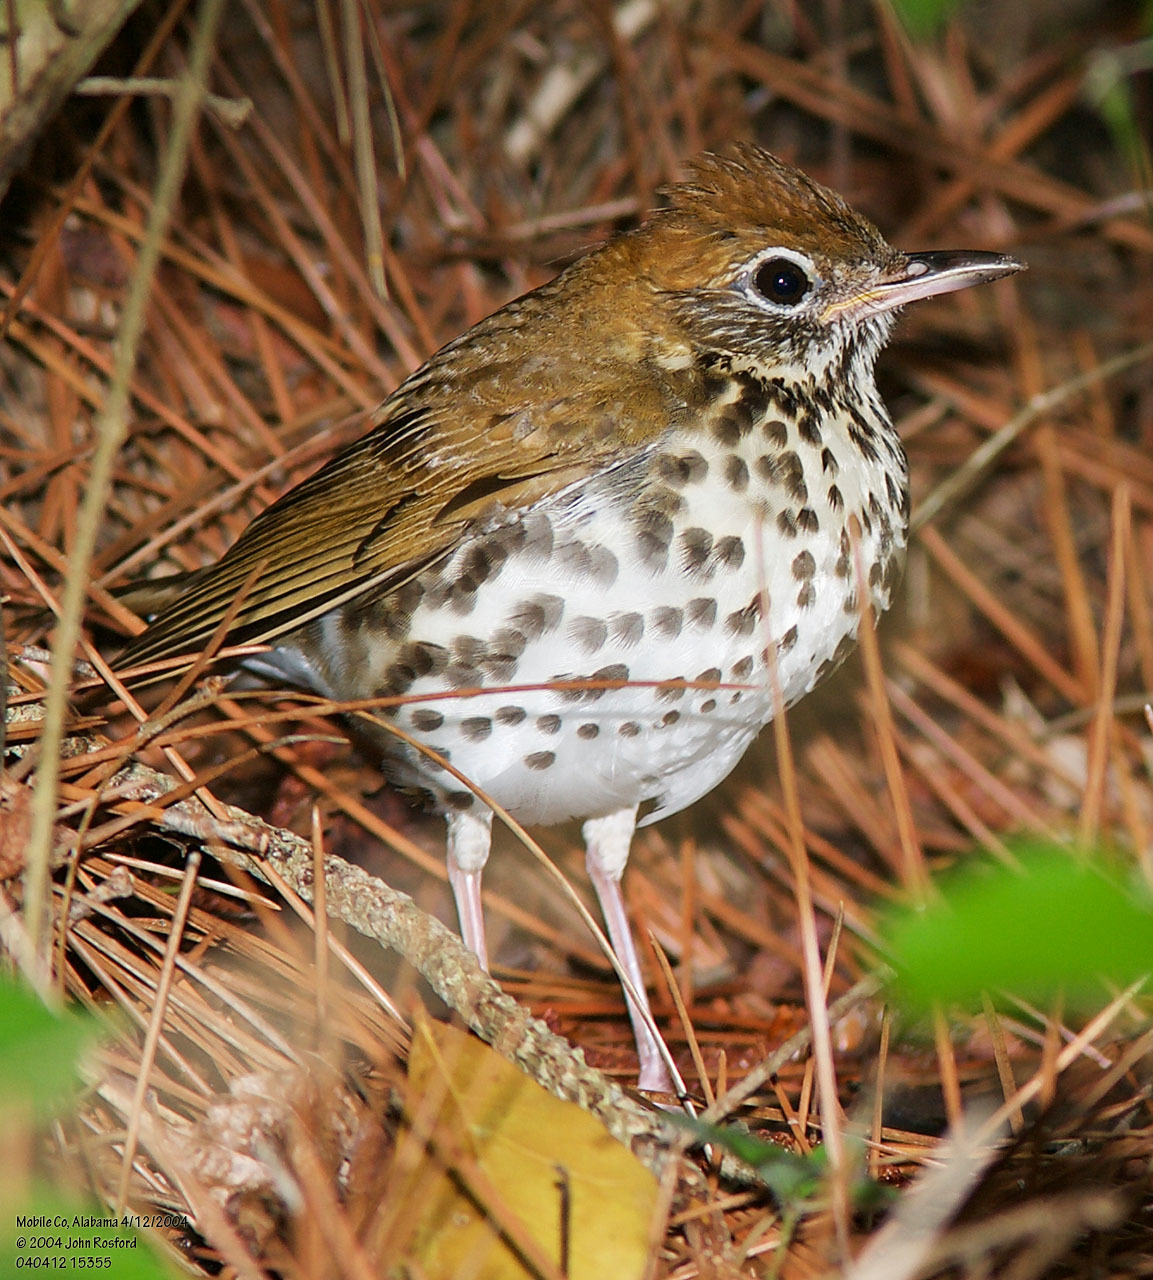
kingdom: Animalia
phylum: Chordata
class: Aves
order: Passeriformes
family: Turdidae
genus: Hylocichla
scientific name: Hylocichla mustelina
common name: Wood thrush
